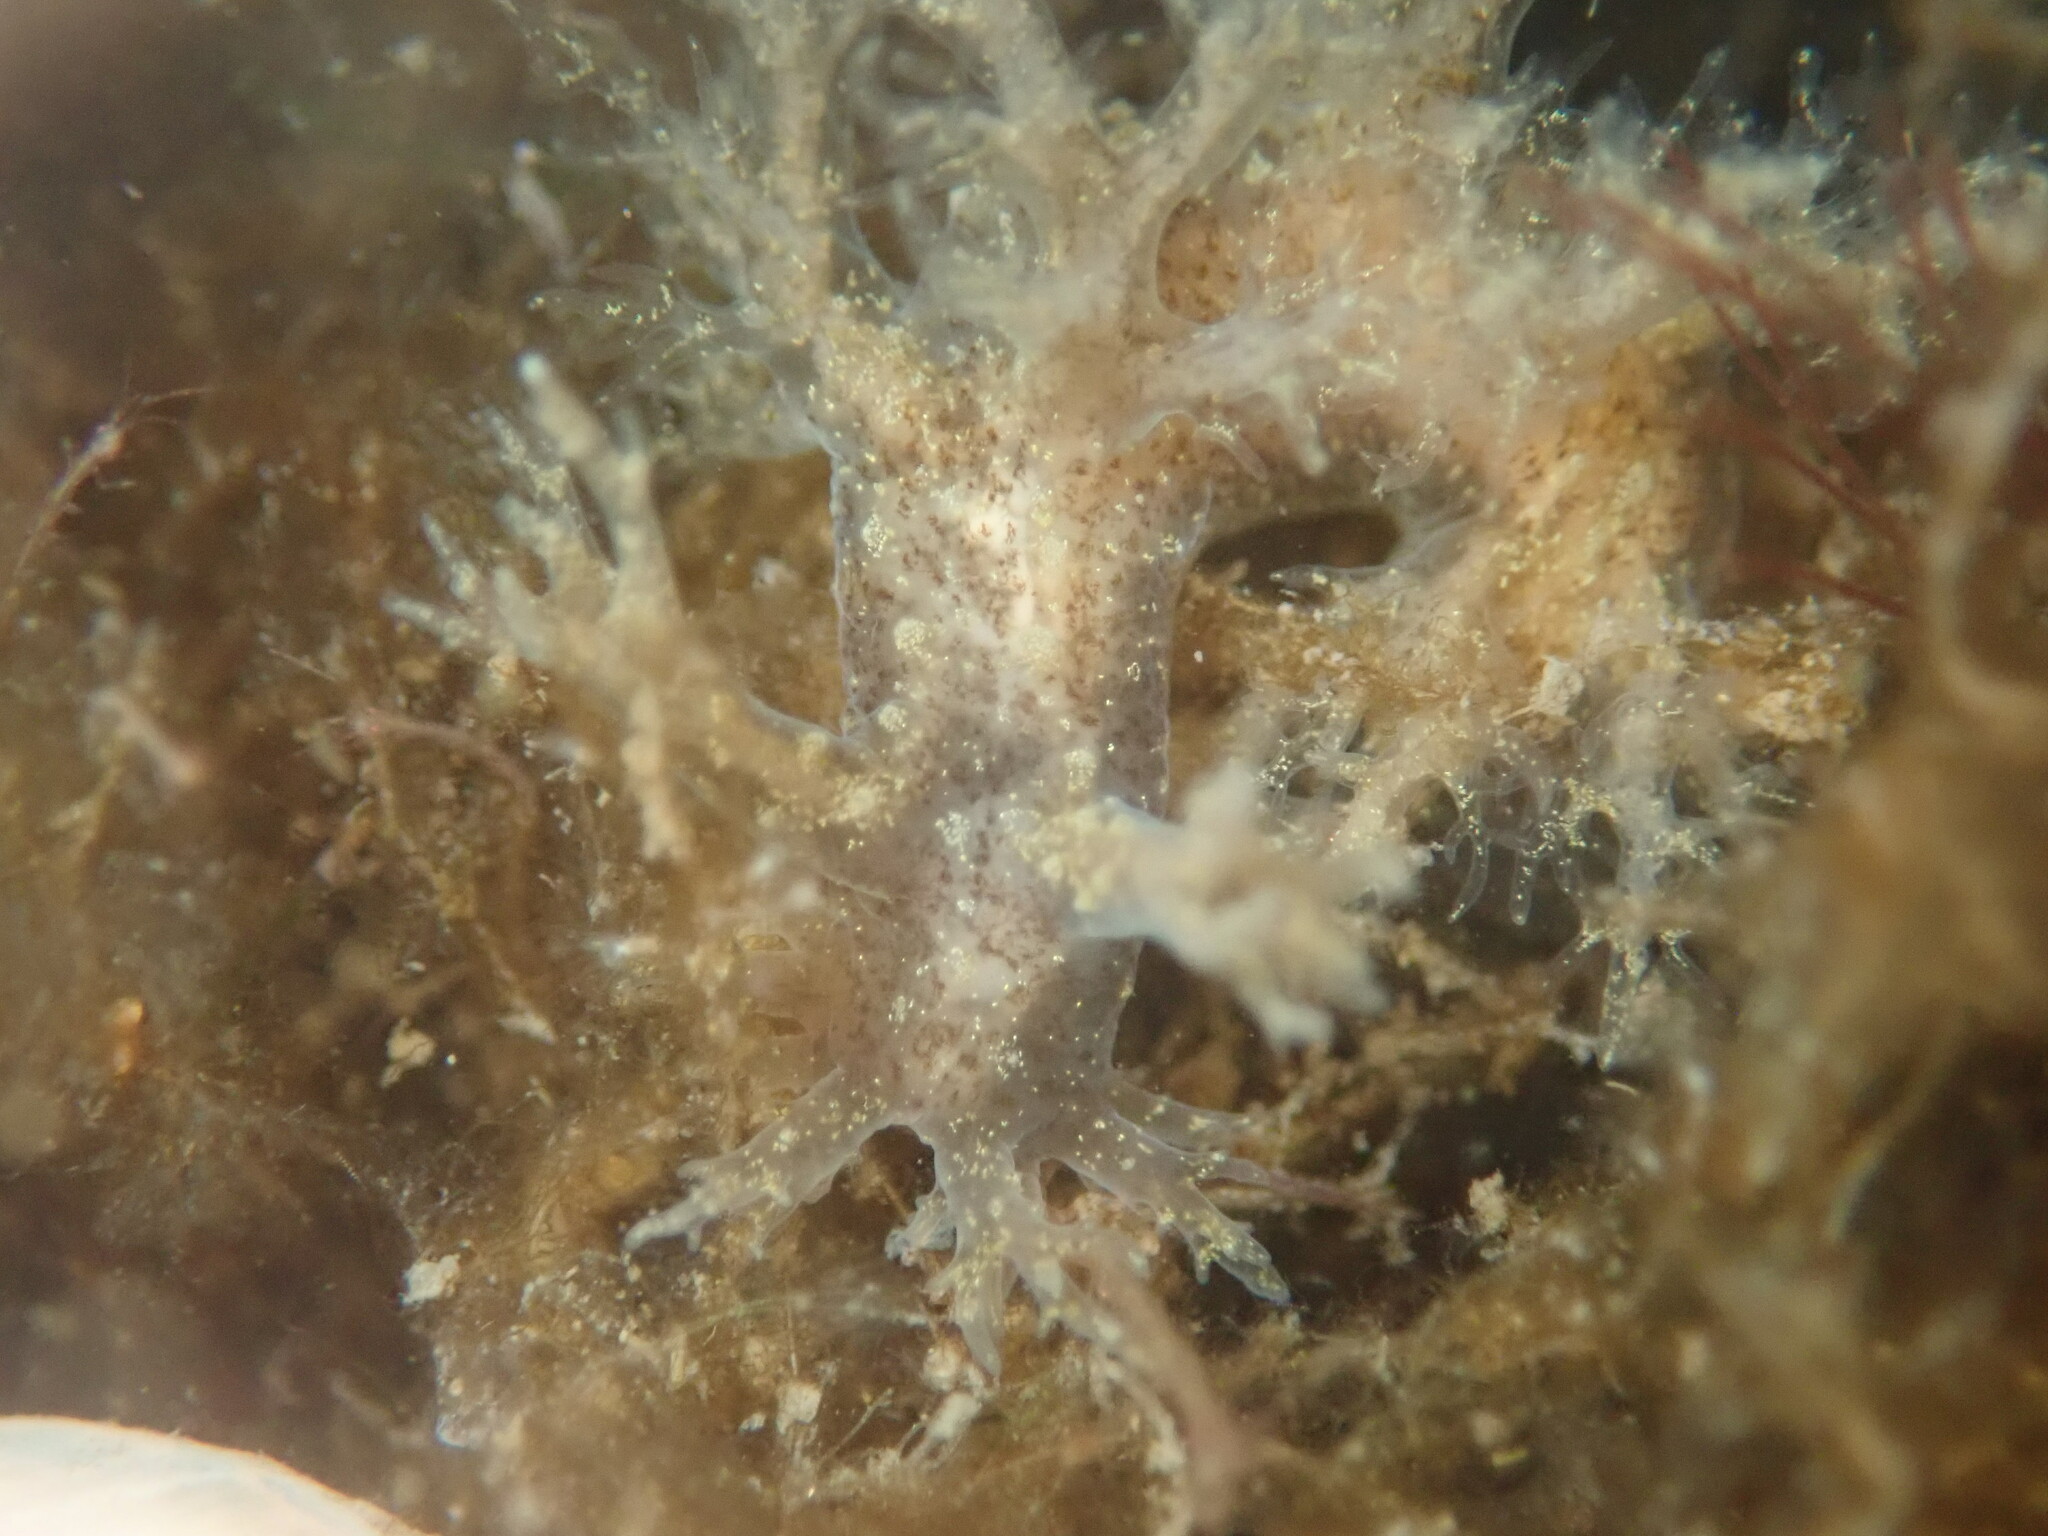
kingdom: Animalia
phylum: Mollusca
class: Gastropoda
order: Nudibranchia
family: Dendronotidae
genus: Dendronotus
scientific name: Dendronotus venustus
